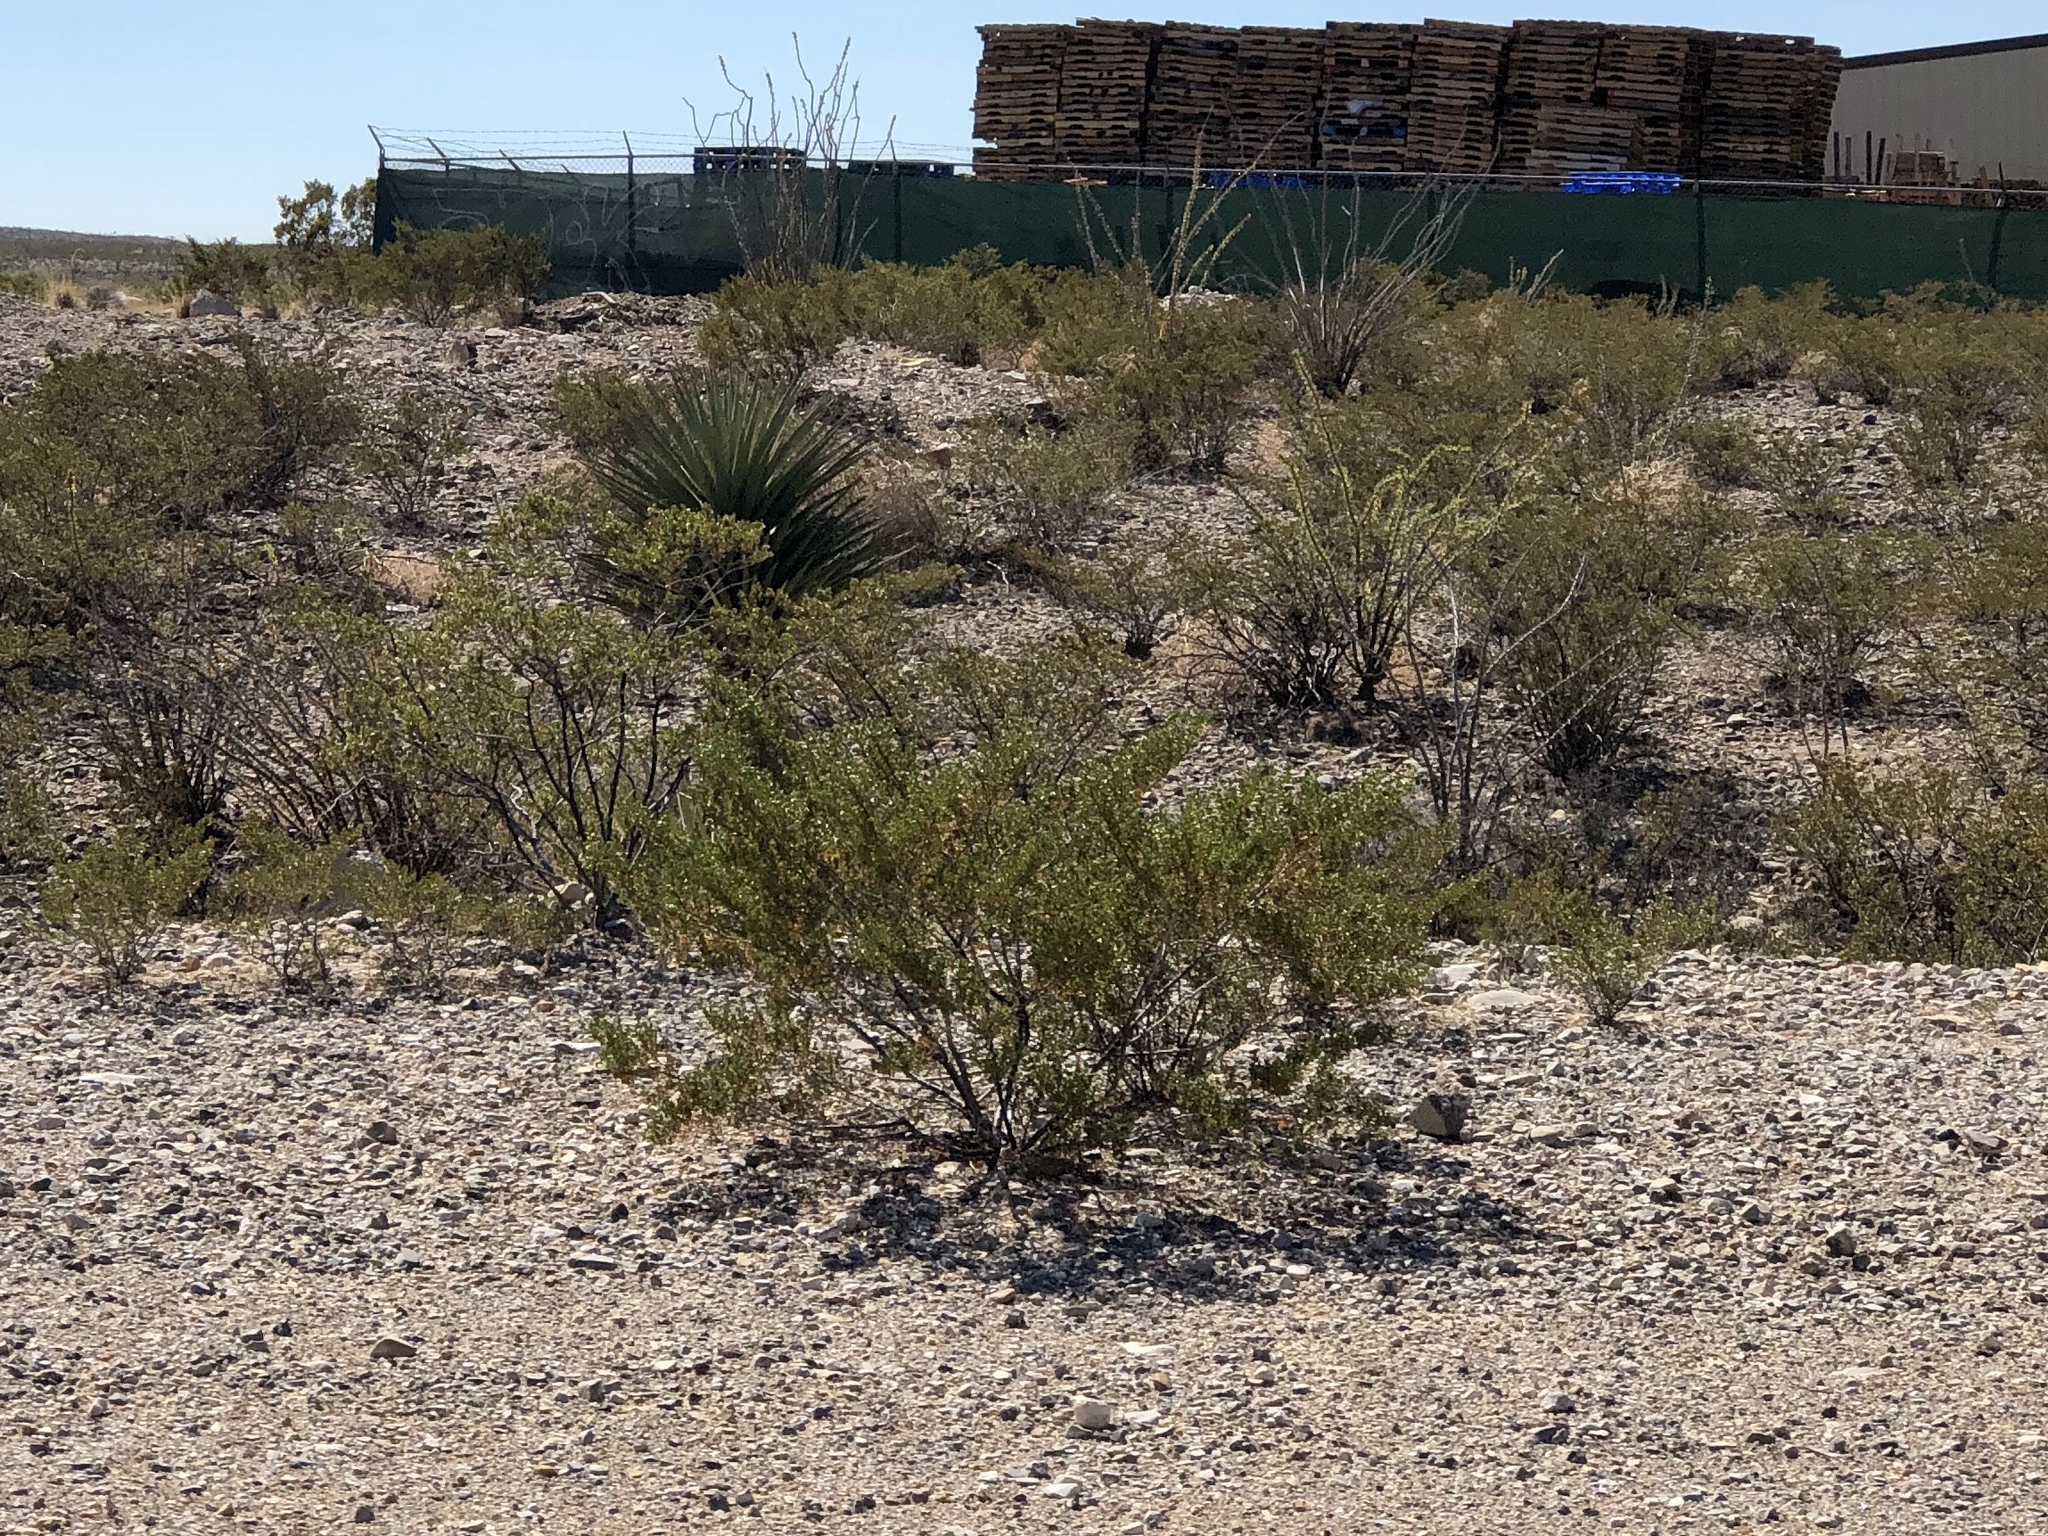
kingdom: Plantae
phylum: Tracheophyta
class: Magnoliopsida
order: Zygophyllales
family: Zygophyllaceae
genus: Larrea
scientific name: Larrea tridentata
